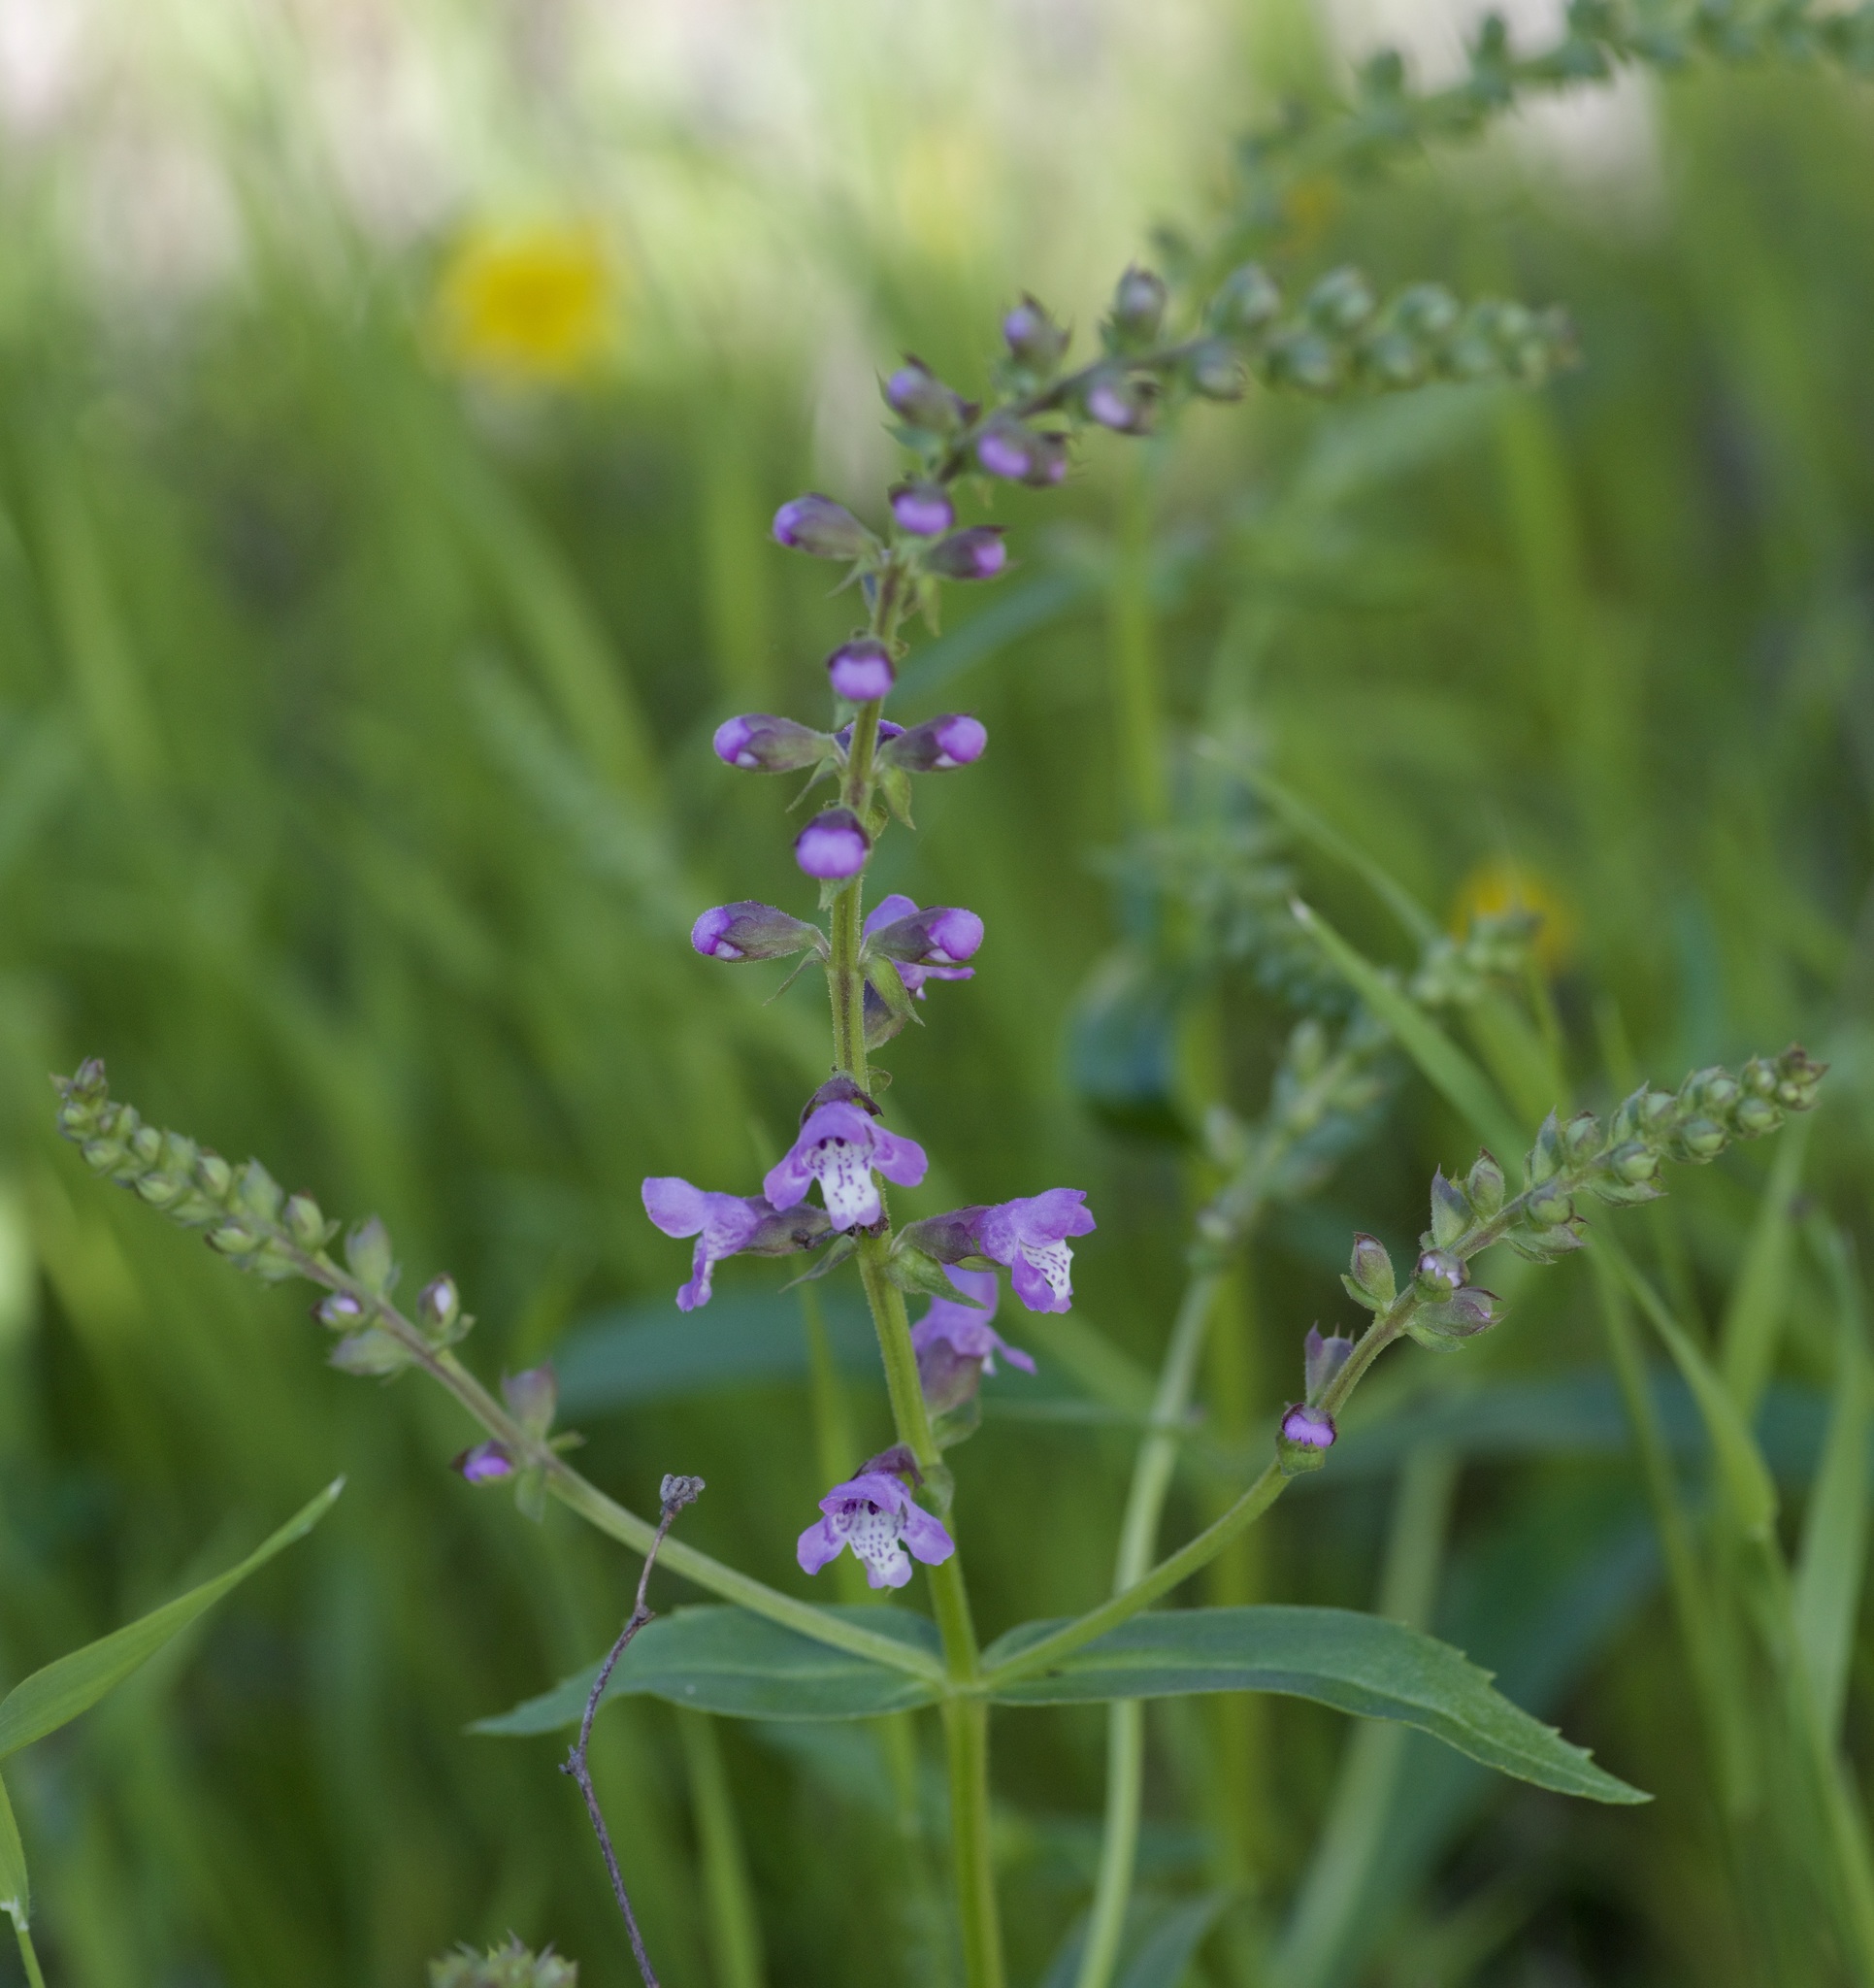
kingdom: Plantae
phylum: Tracheophyta
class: Magnoliopsida
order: Lamiales
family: Lamiaceae
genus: Warnockia
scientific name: Warnockia scutellarioides
